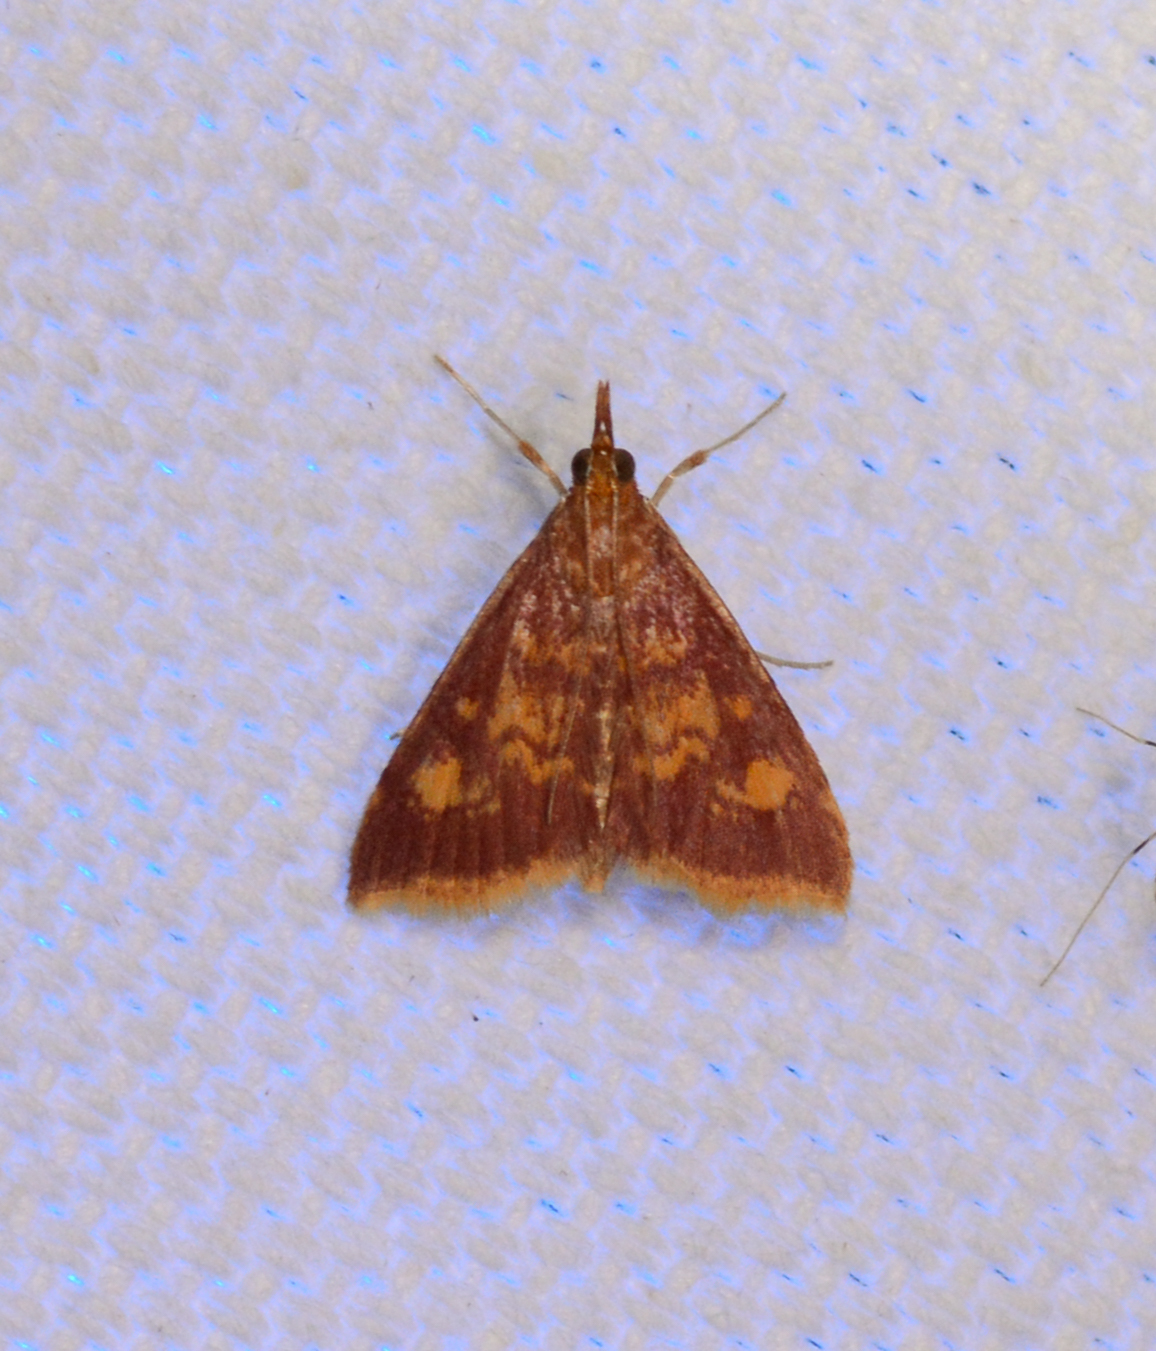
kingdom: Animalia
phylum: Arthropoda
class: Insecta
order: Lepidoptera
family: Crambidae
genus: Pyrausta
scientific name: Pyrausta acrionalis
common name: Mint-loving pyrausta moth
